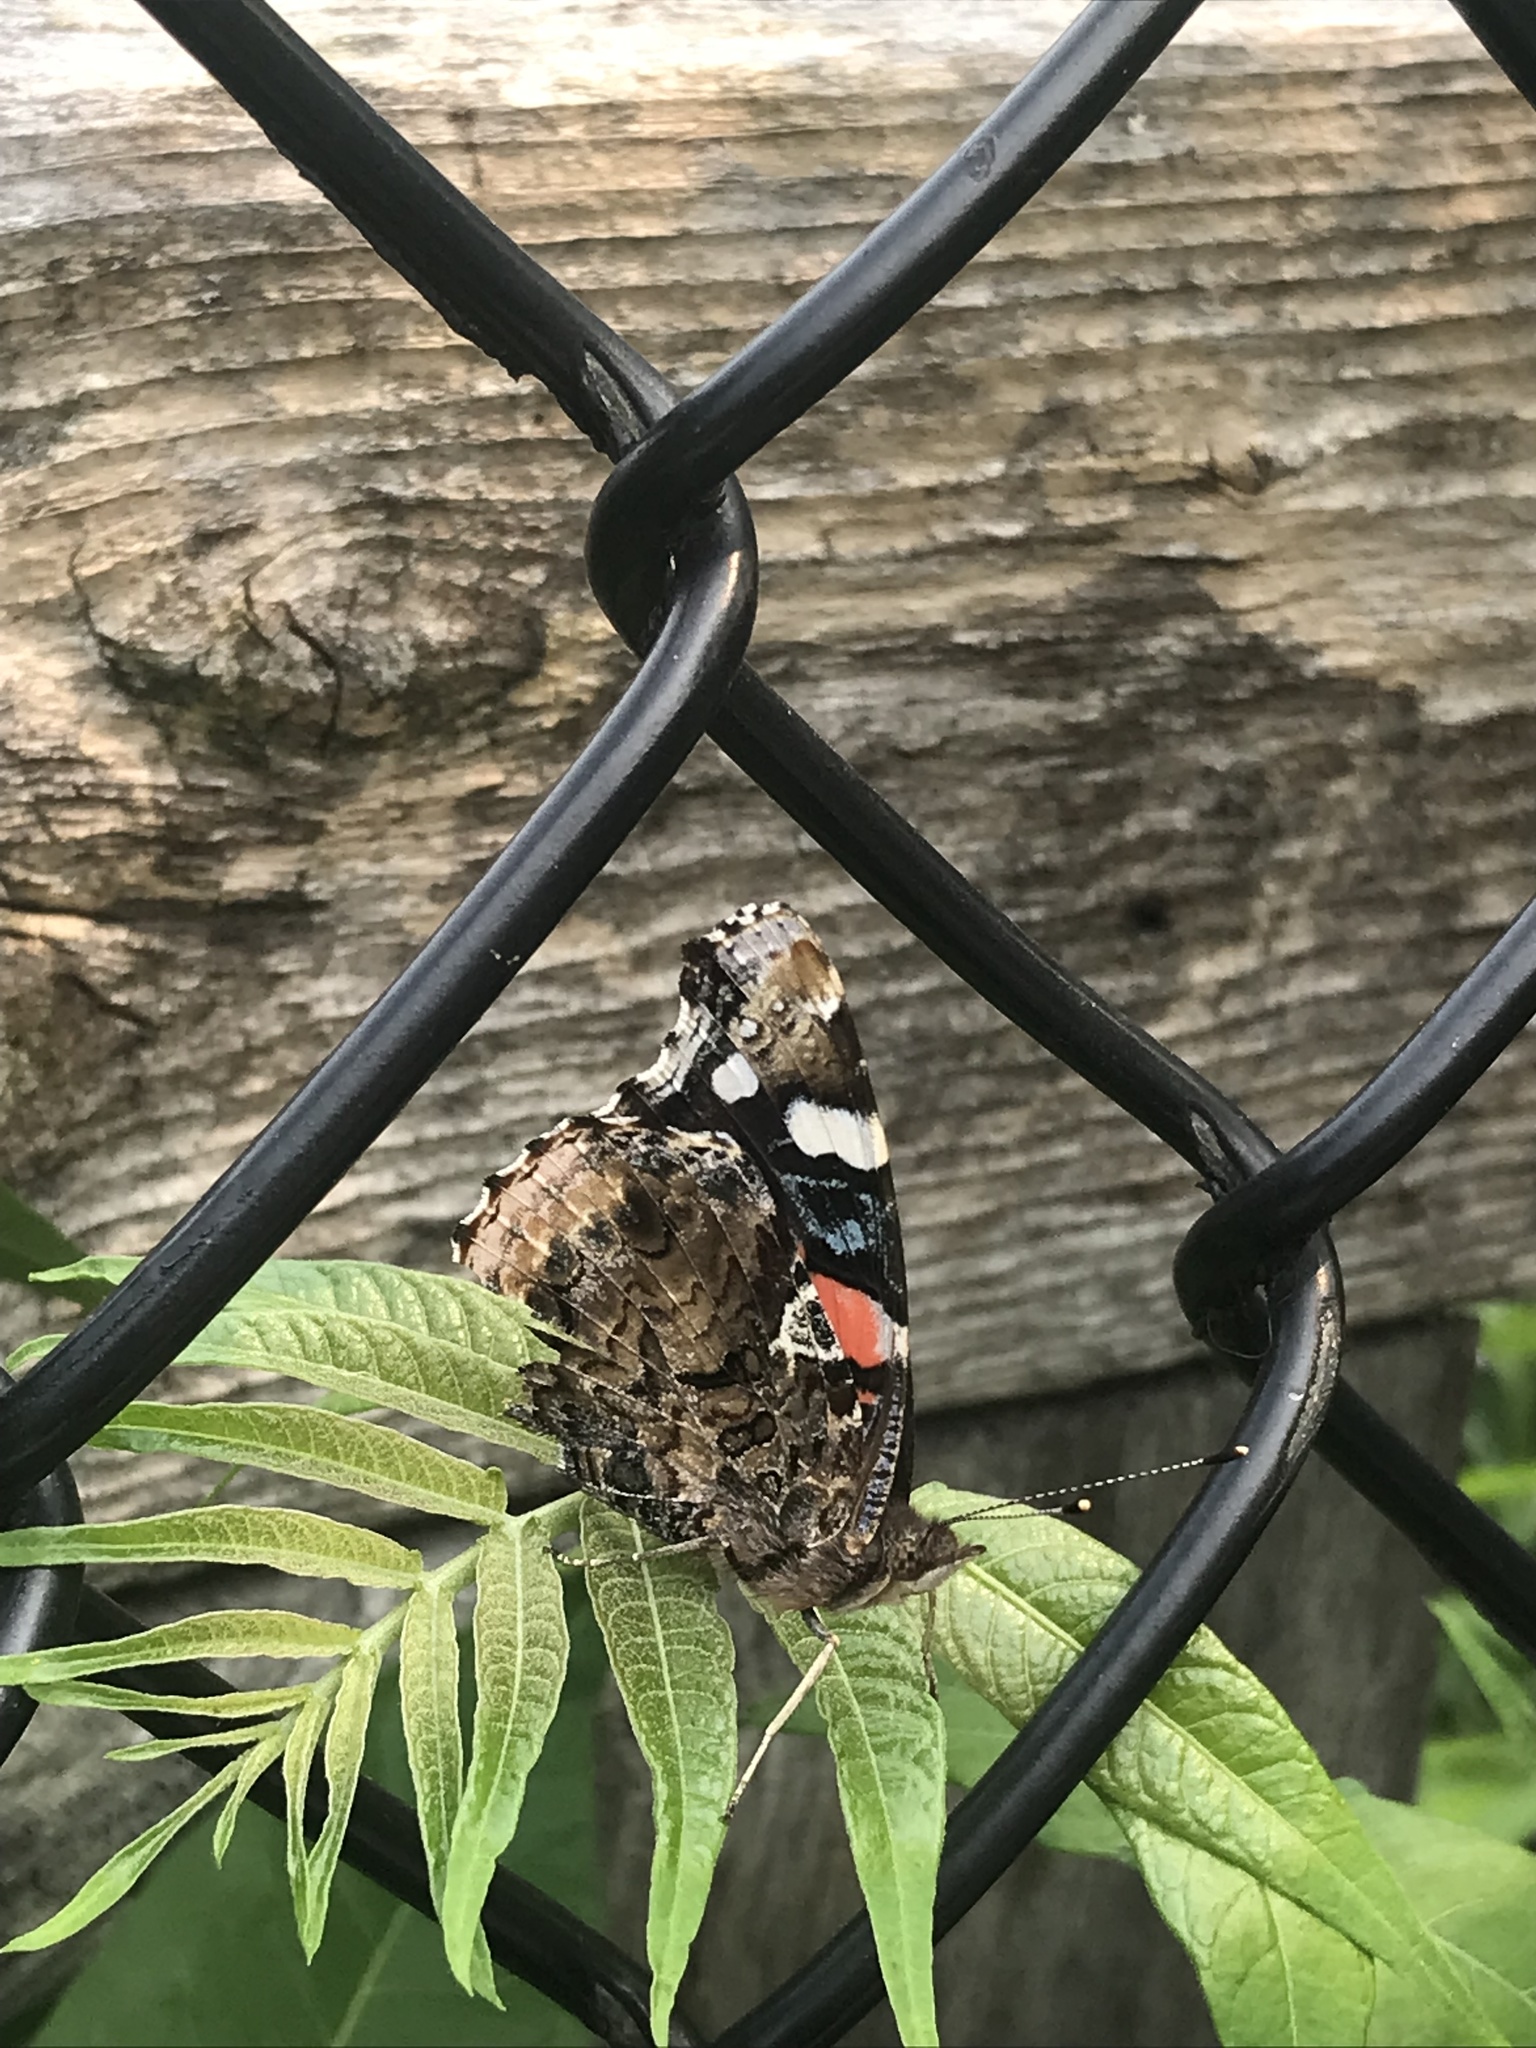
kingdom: Animalia
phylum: Arthropoda
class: Insecta
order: Lepidoptera
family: Nymphalidae
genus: Vanessa
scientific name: Vanessa atalanta
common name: Red admiral
